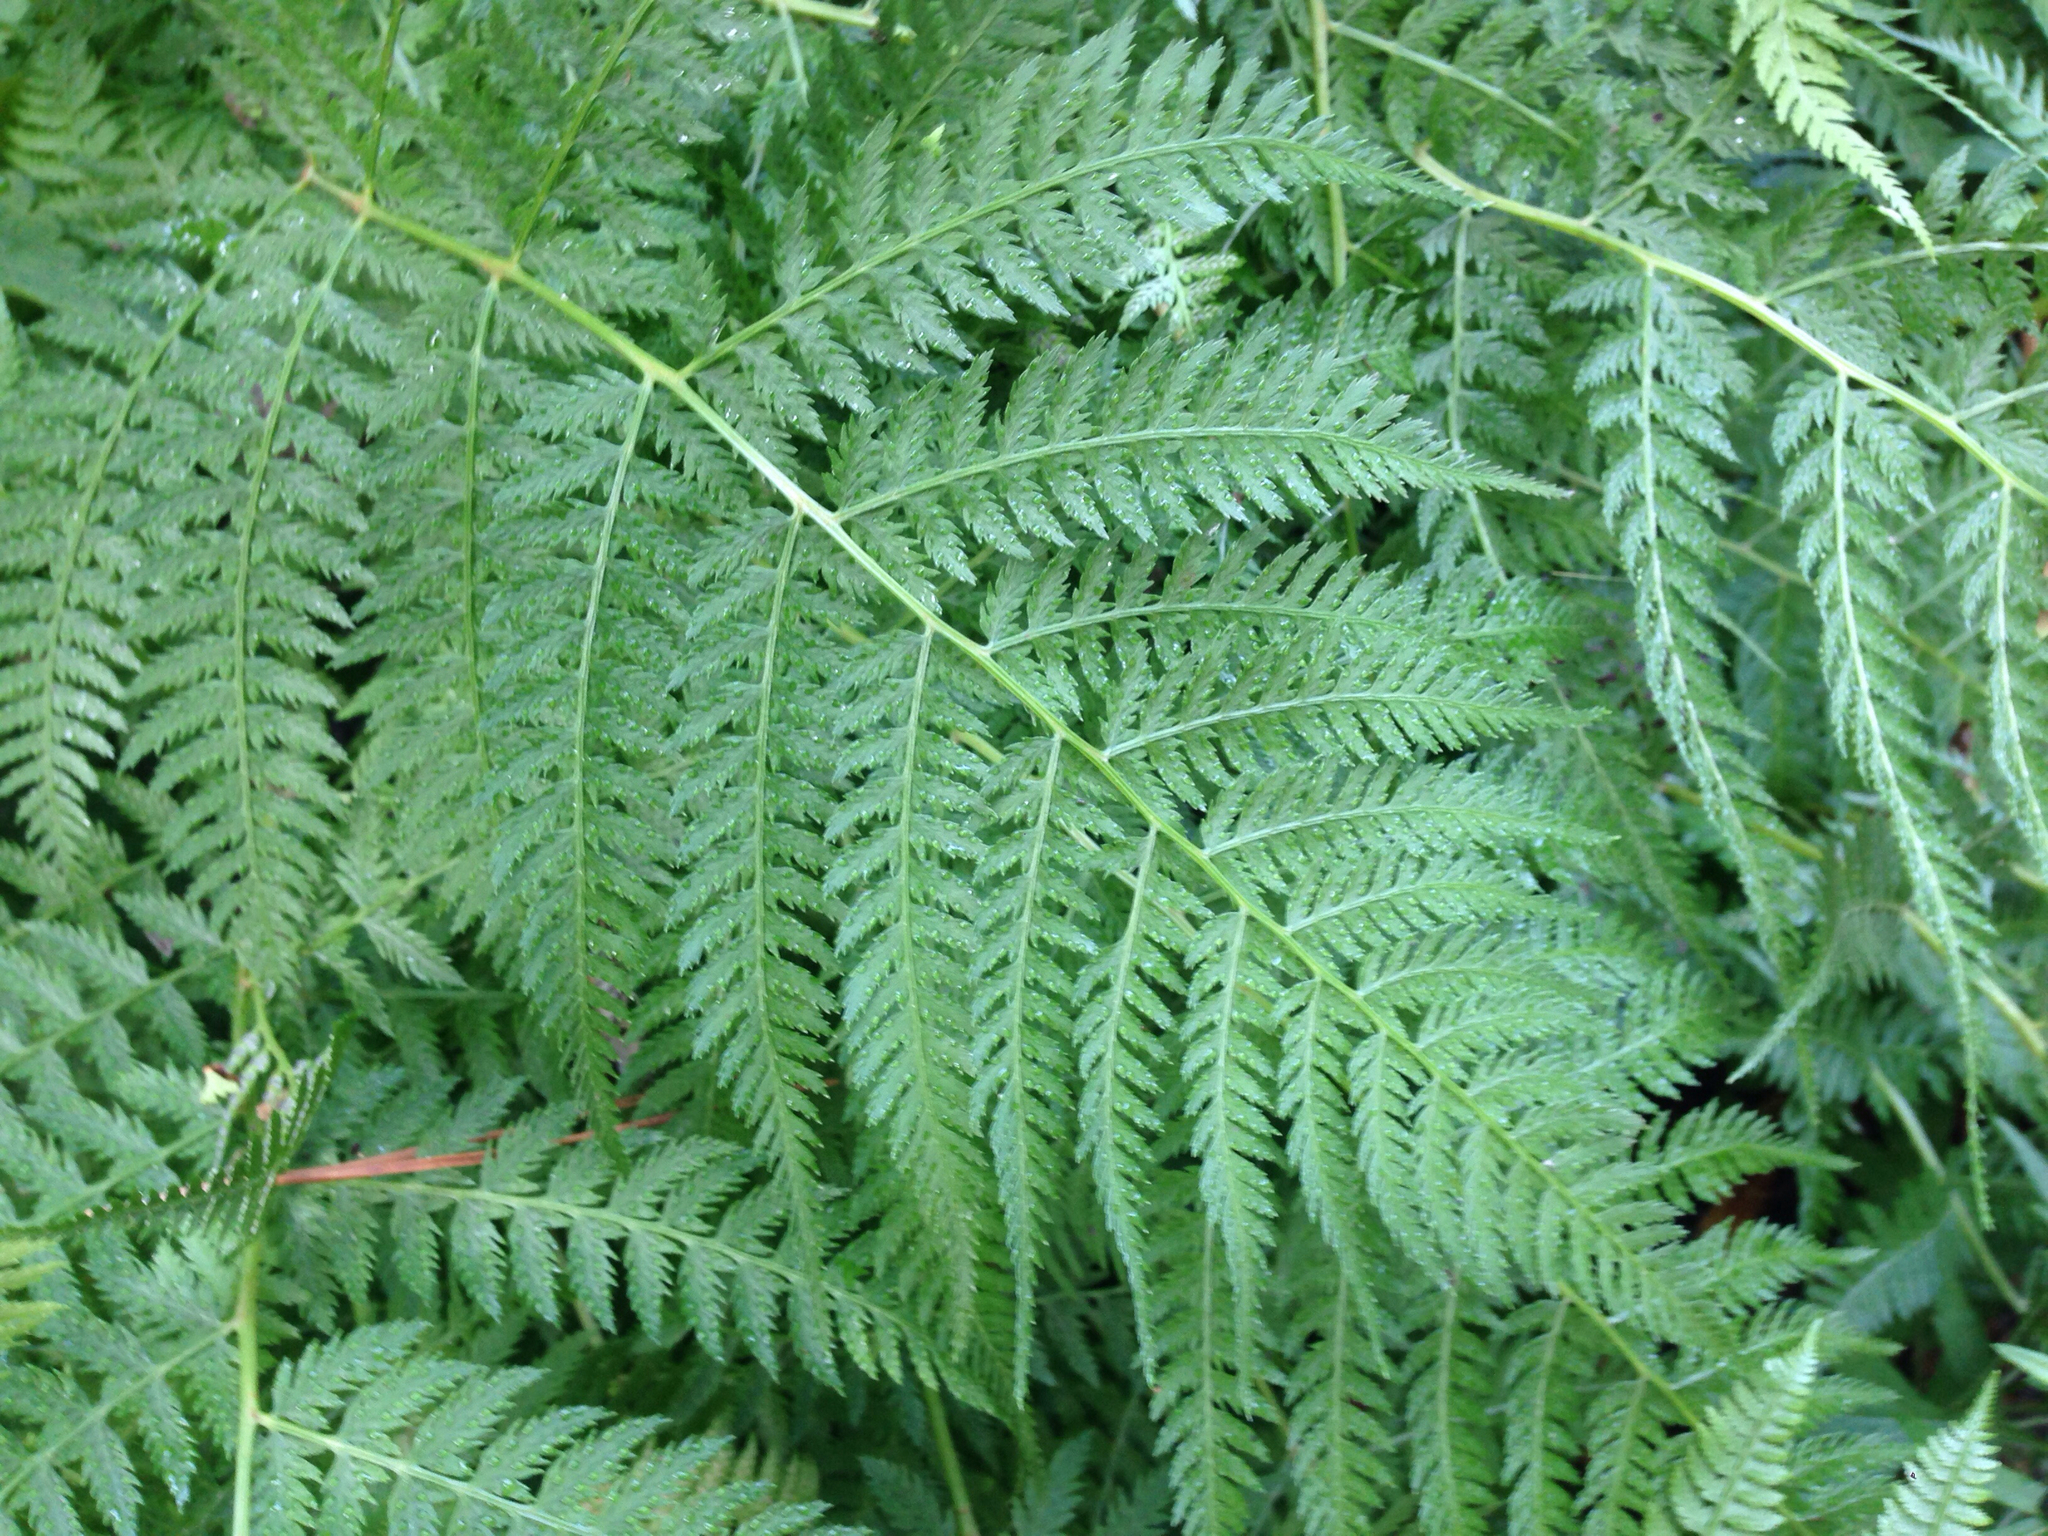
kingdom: Plantae
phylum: Tracheophyta
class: Polypodiopsida
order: Polypodiales
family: Athyriaceae
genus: Athyrium
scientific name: Athyrium yokoscense
